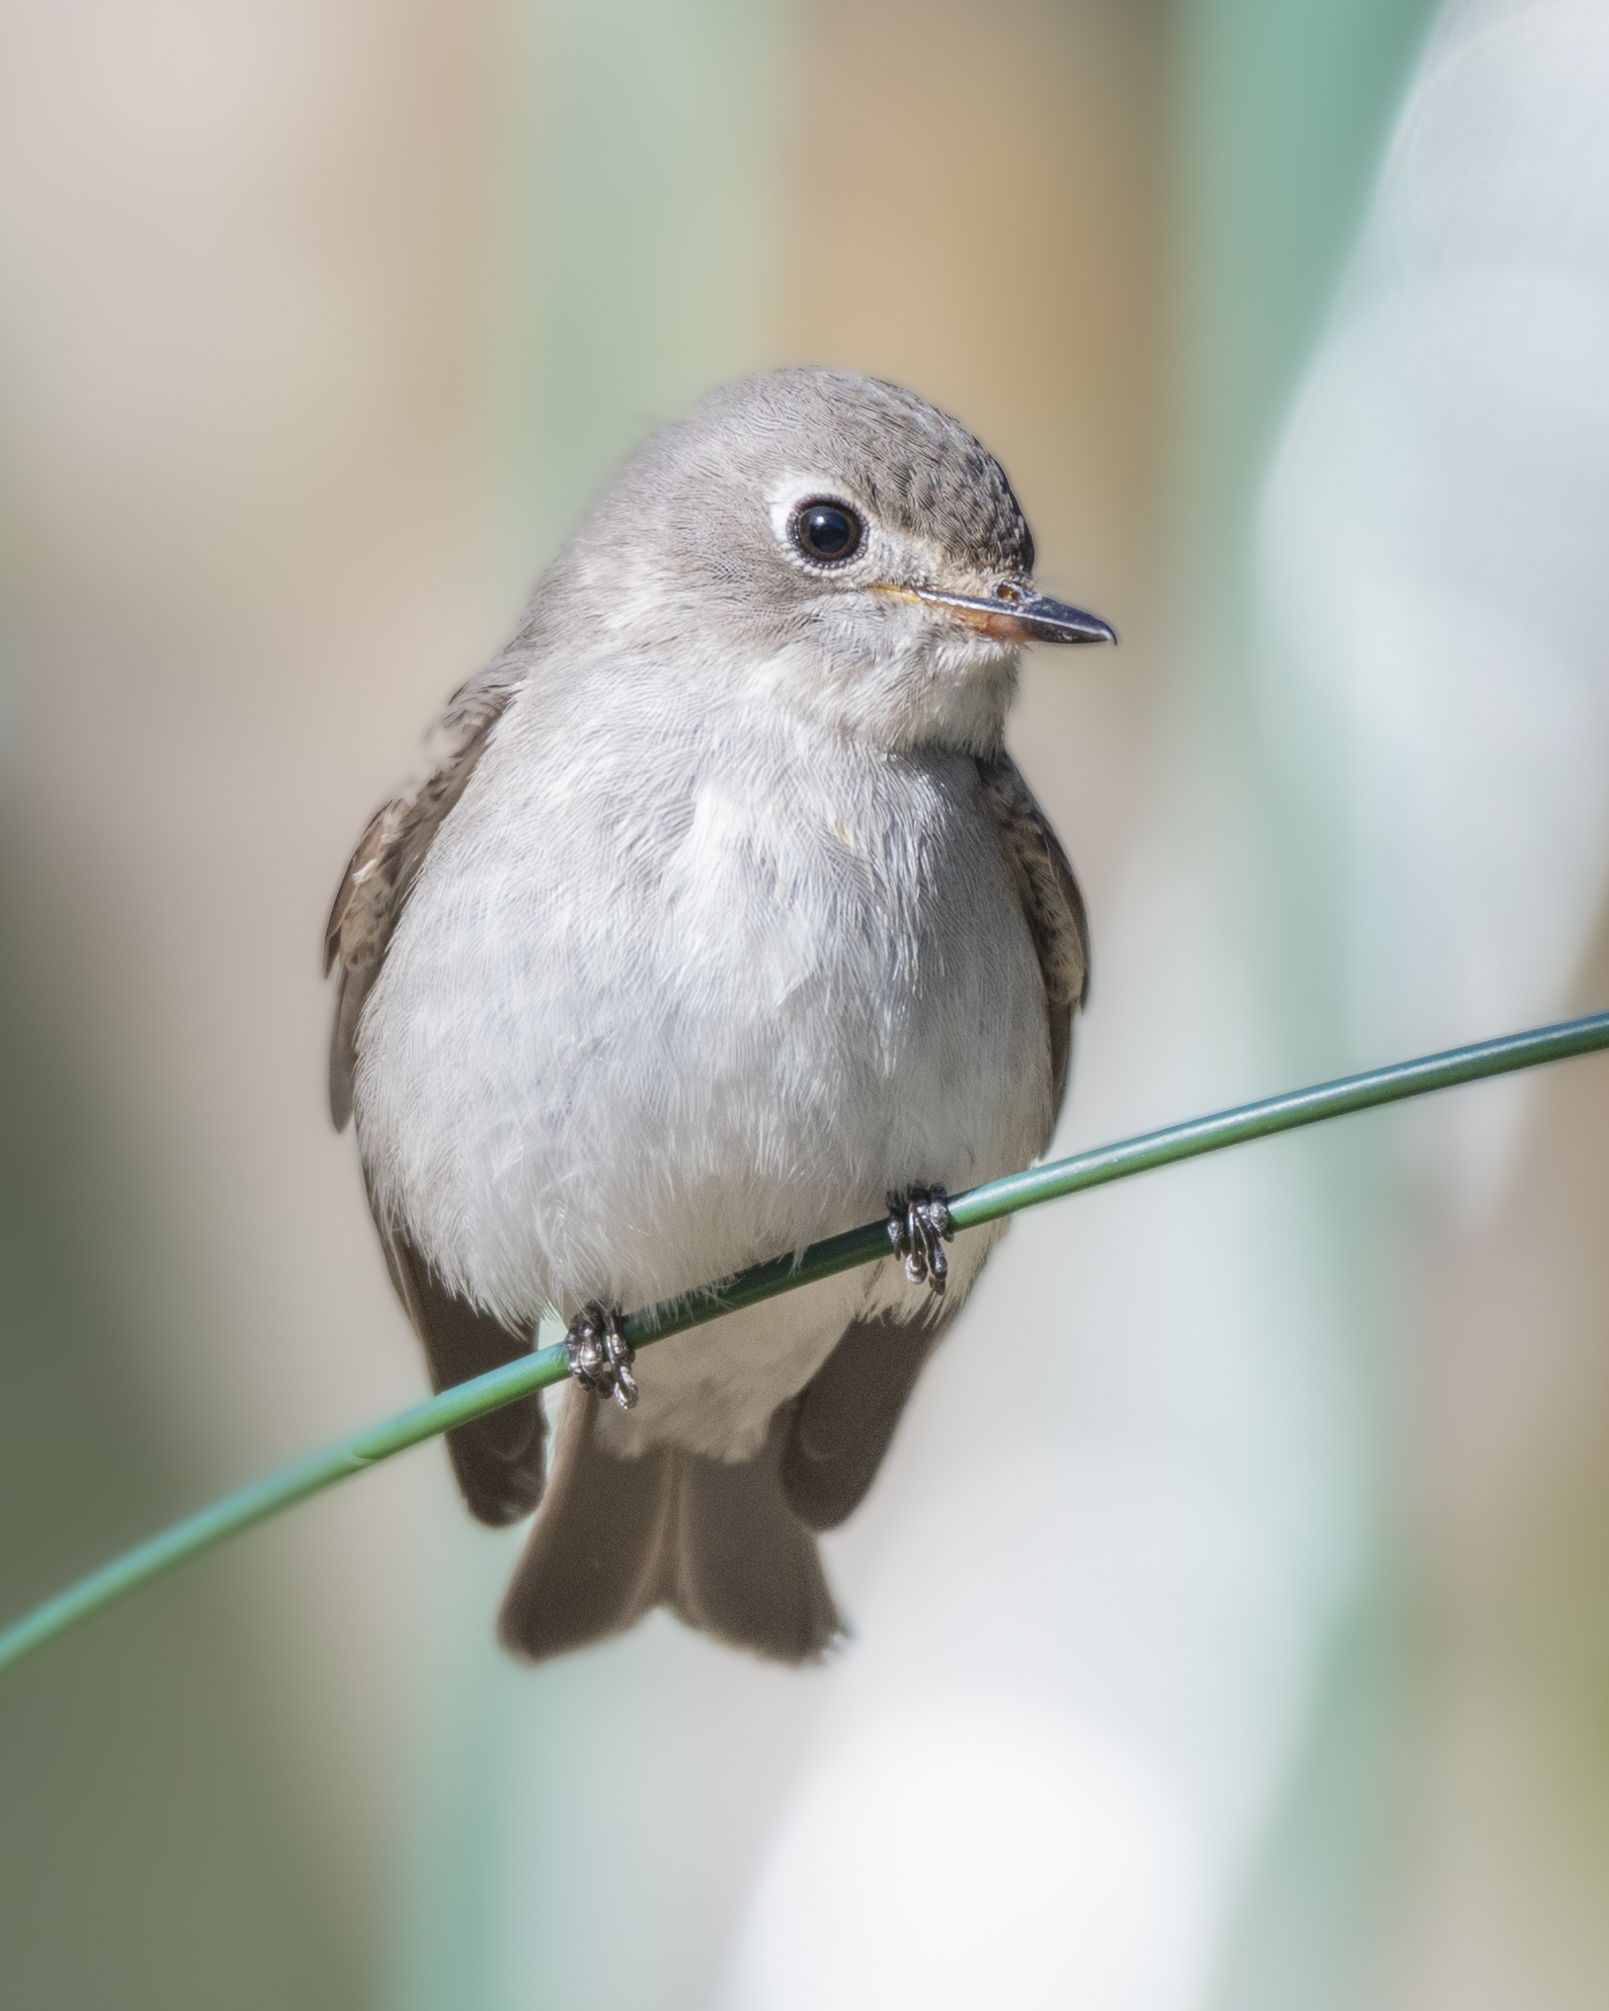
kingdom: Animalia
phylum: Chordata
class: Aves
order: Passeriformes
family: Muscicapidae
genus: Muscicapa
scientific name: Muscicapa latirostris
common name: Asian brown flycatcher
